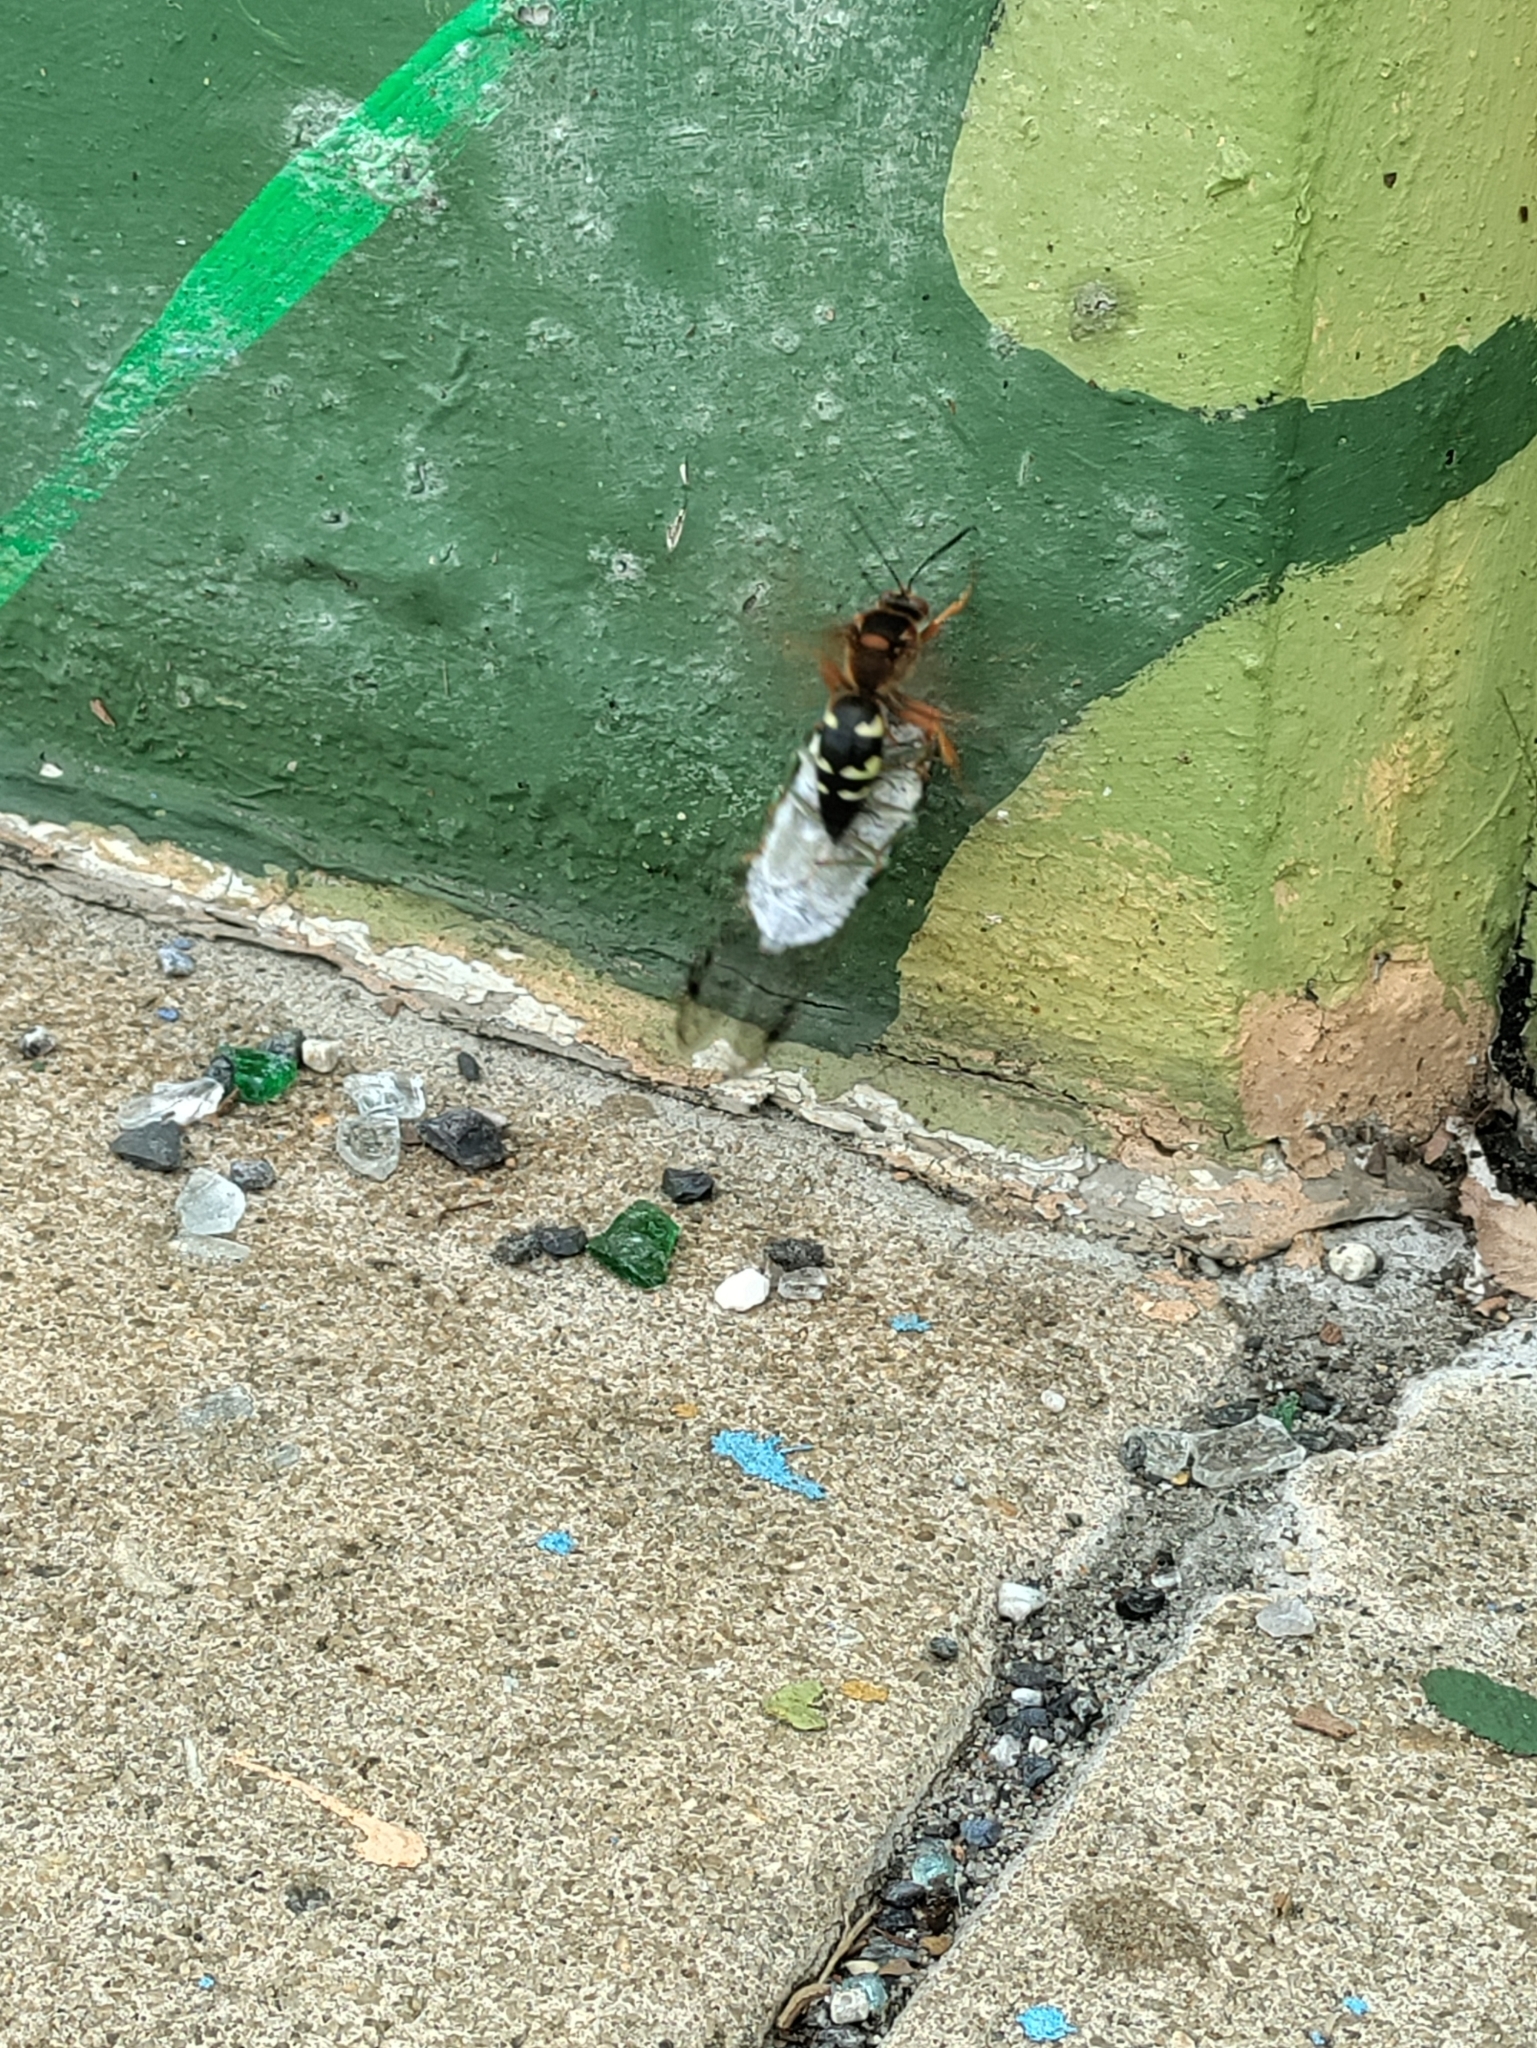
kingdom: Animalia
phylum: Arthropoda
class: Insecta
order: Hymenoptera
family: Crabronidae
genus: Sphecius
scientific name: Sphecius speciosus
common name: Cicada killer
